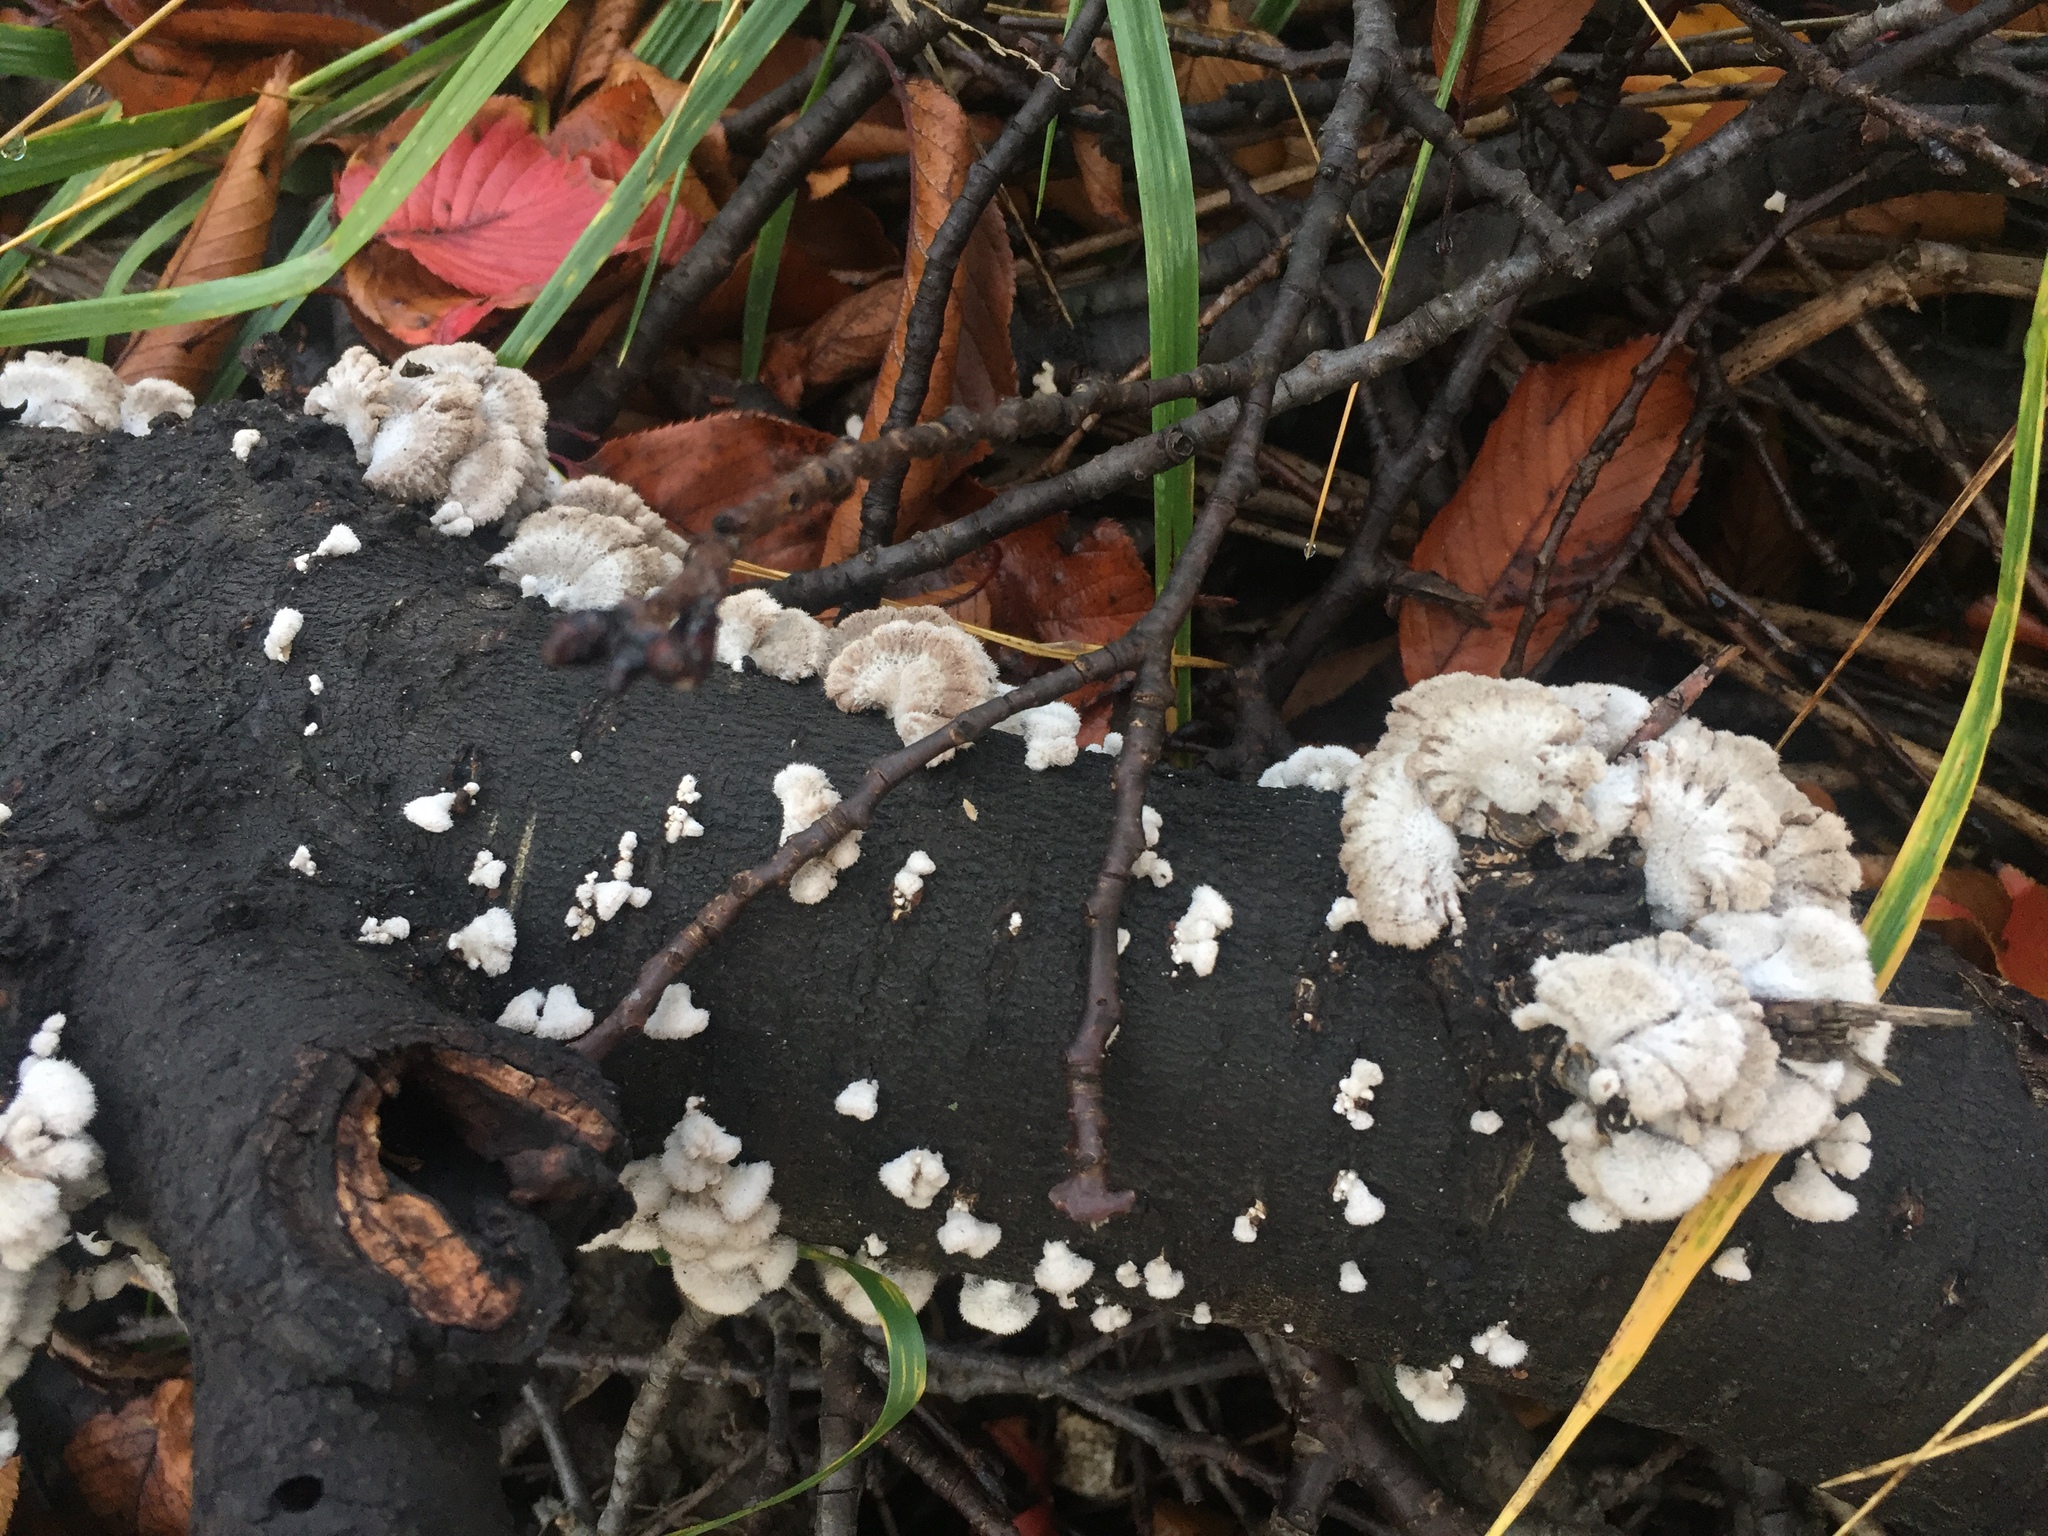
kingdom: Fungi
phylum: Basidiomycota
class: Agaricomycetes
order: Agaricales
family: Schizophyllaceae
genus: Schizophyllum
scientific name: Schizophyllum commune
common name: Common porecrust
